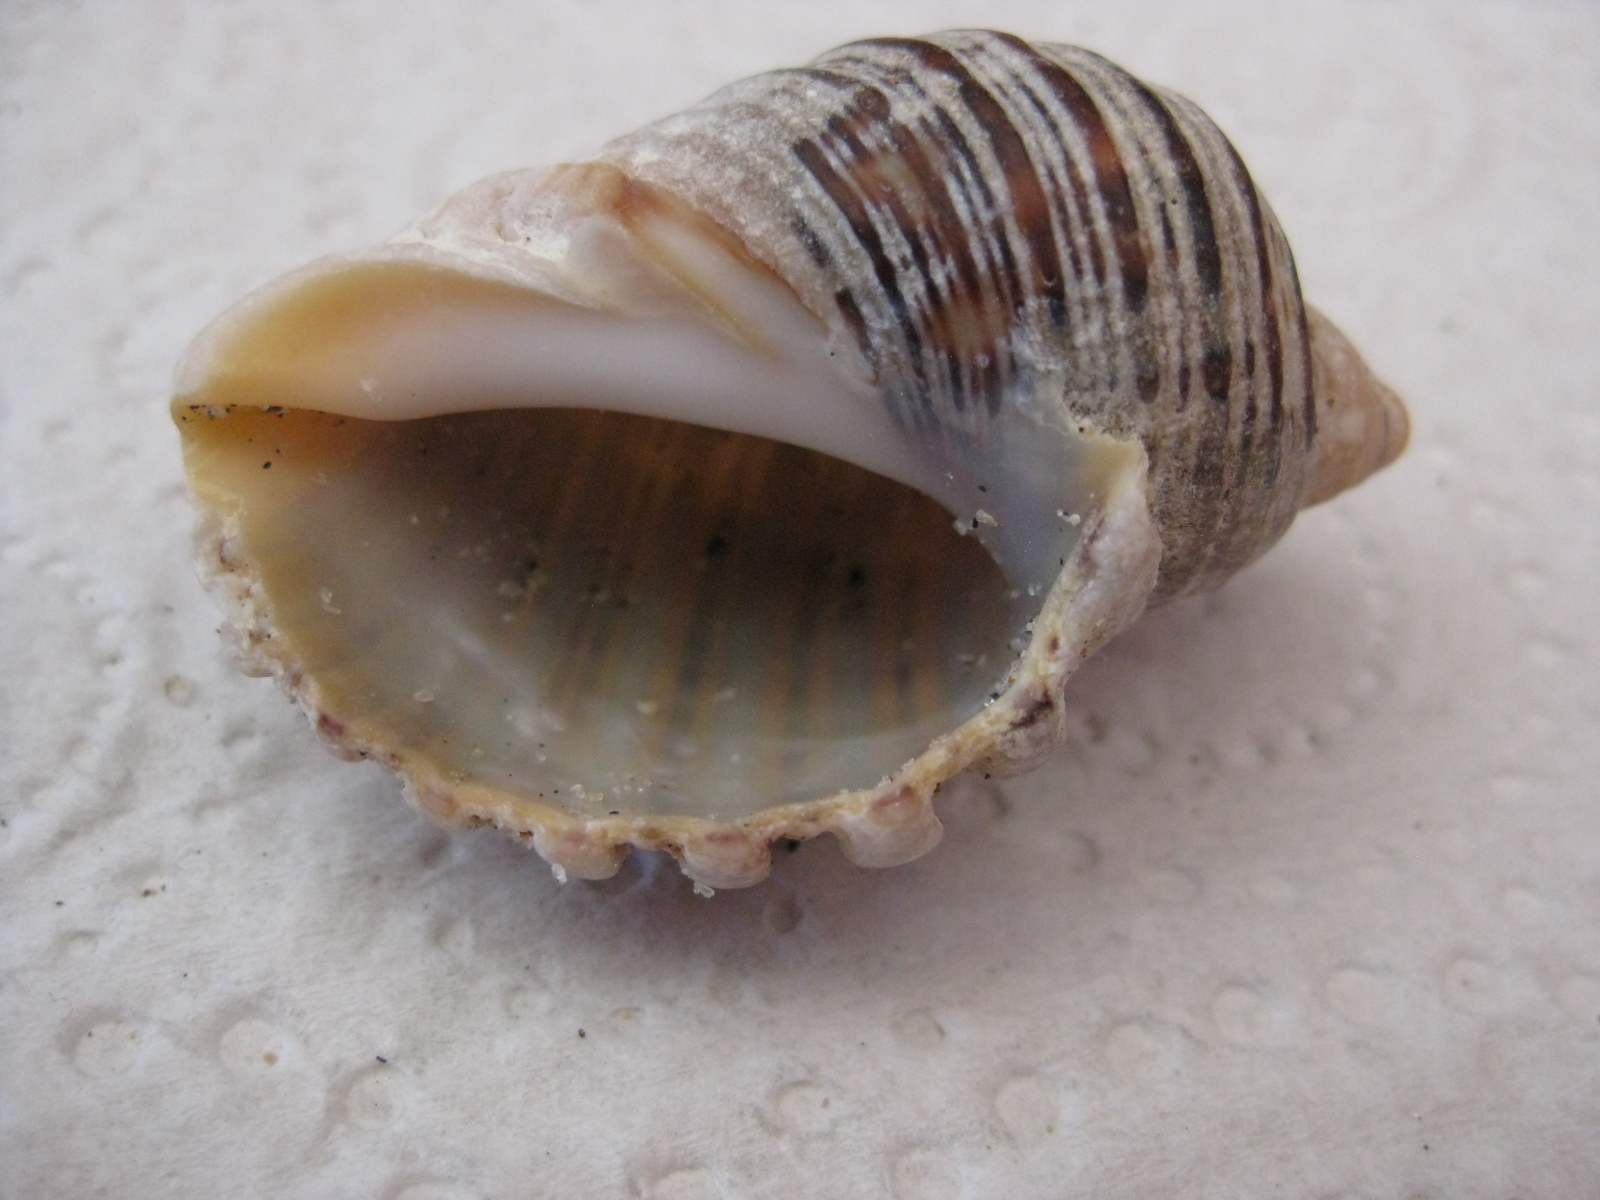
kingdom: Animalia
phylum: Mollusca
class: Gastropoda
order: Neogastropoda
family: Muricidae
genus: Dicathais
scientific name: Dicathais orbita
